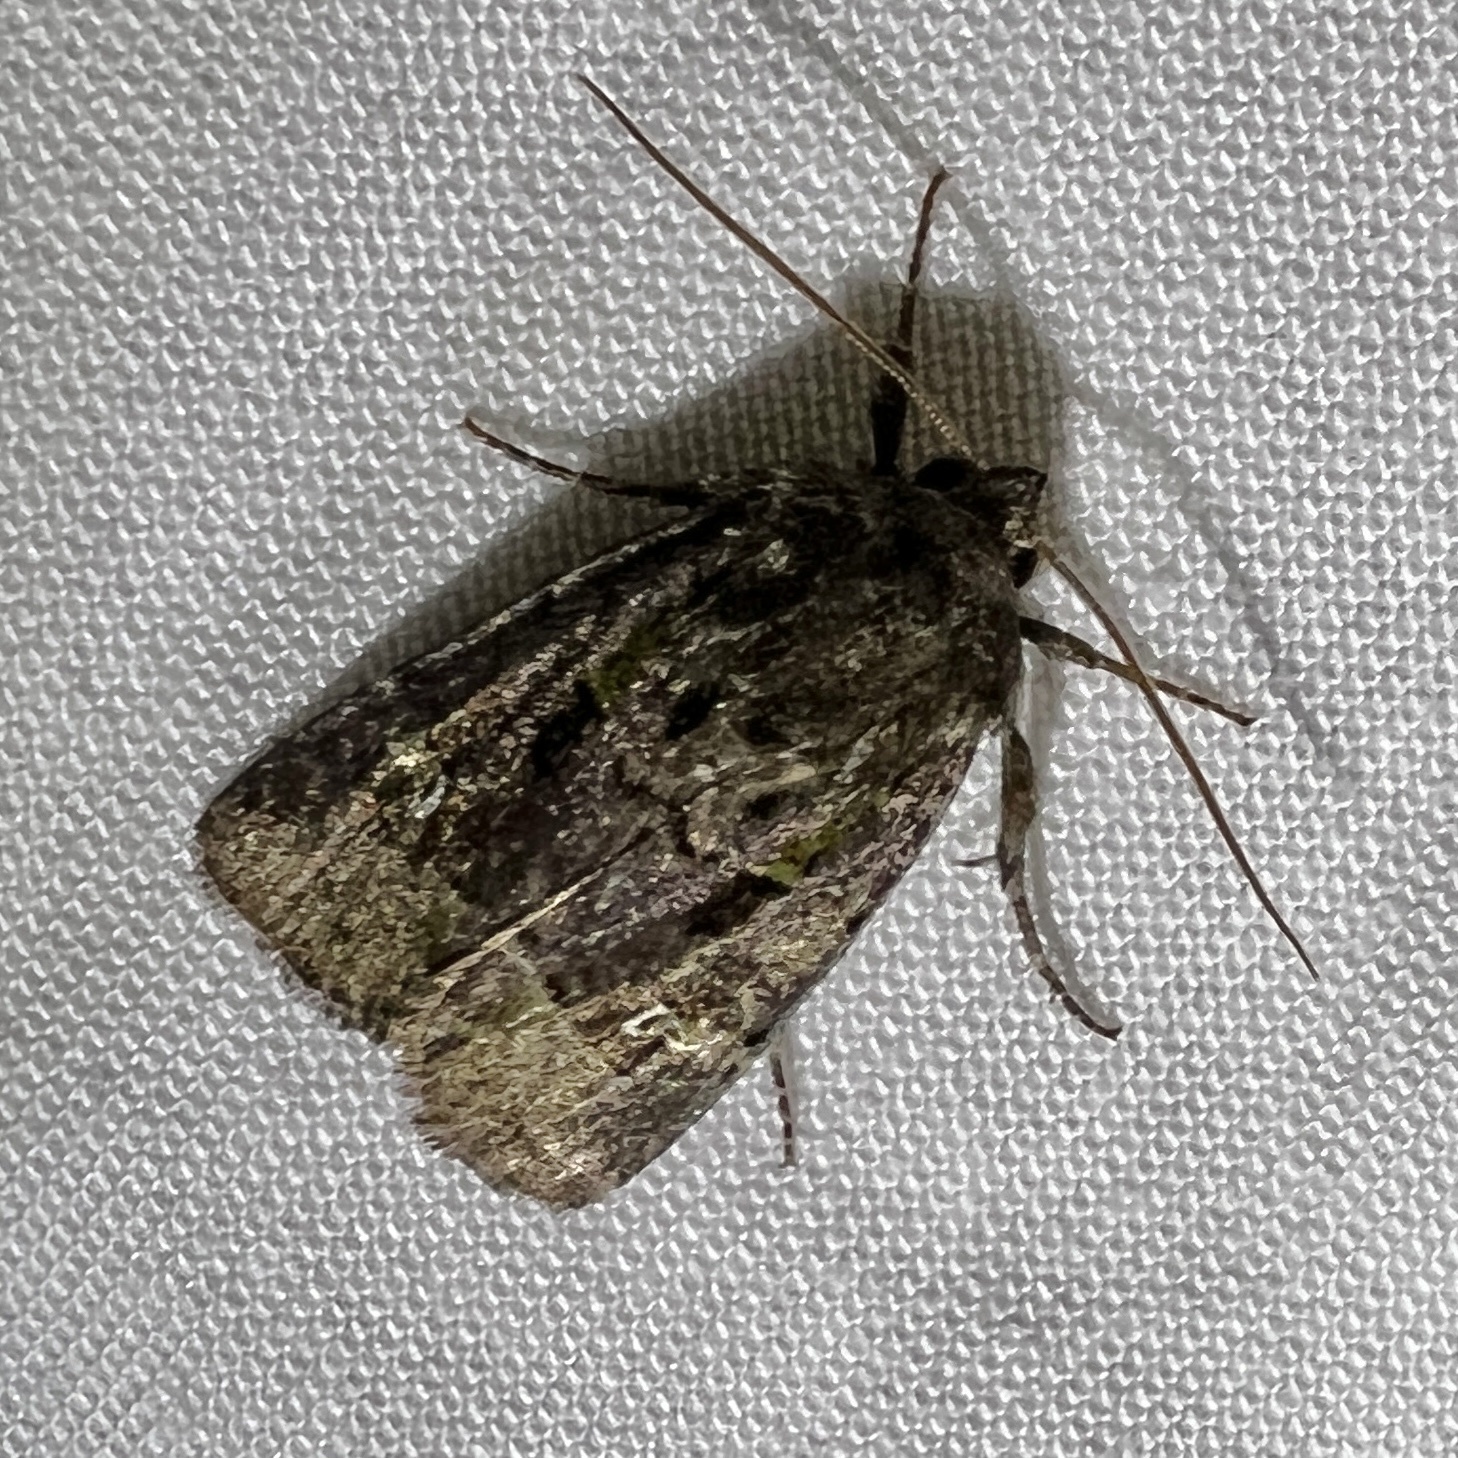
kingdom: Animalia
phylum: Arthropoda
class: Insecta
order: Lepidoptera
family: Noctuidae
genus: Lacinipolia
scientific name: Lacinipolia renigera
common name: Kidney-spotted minor
